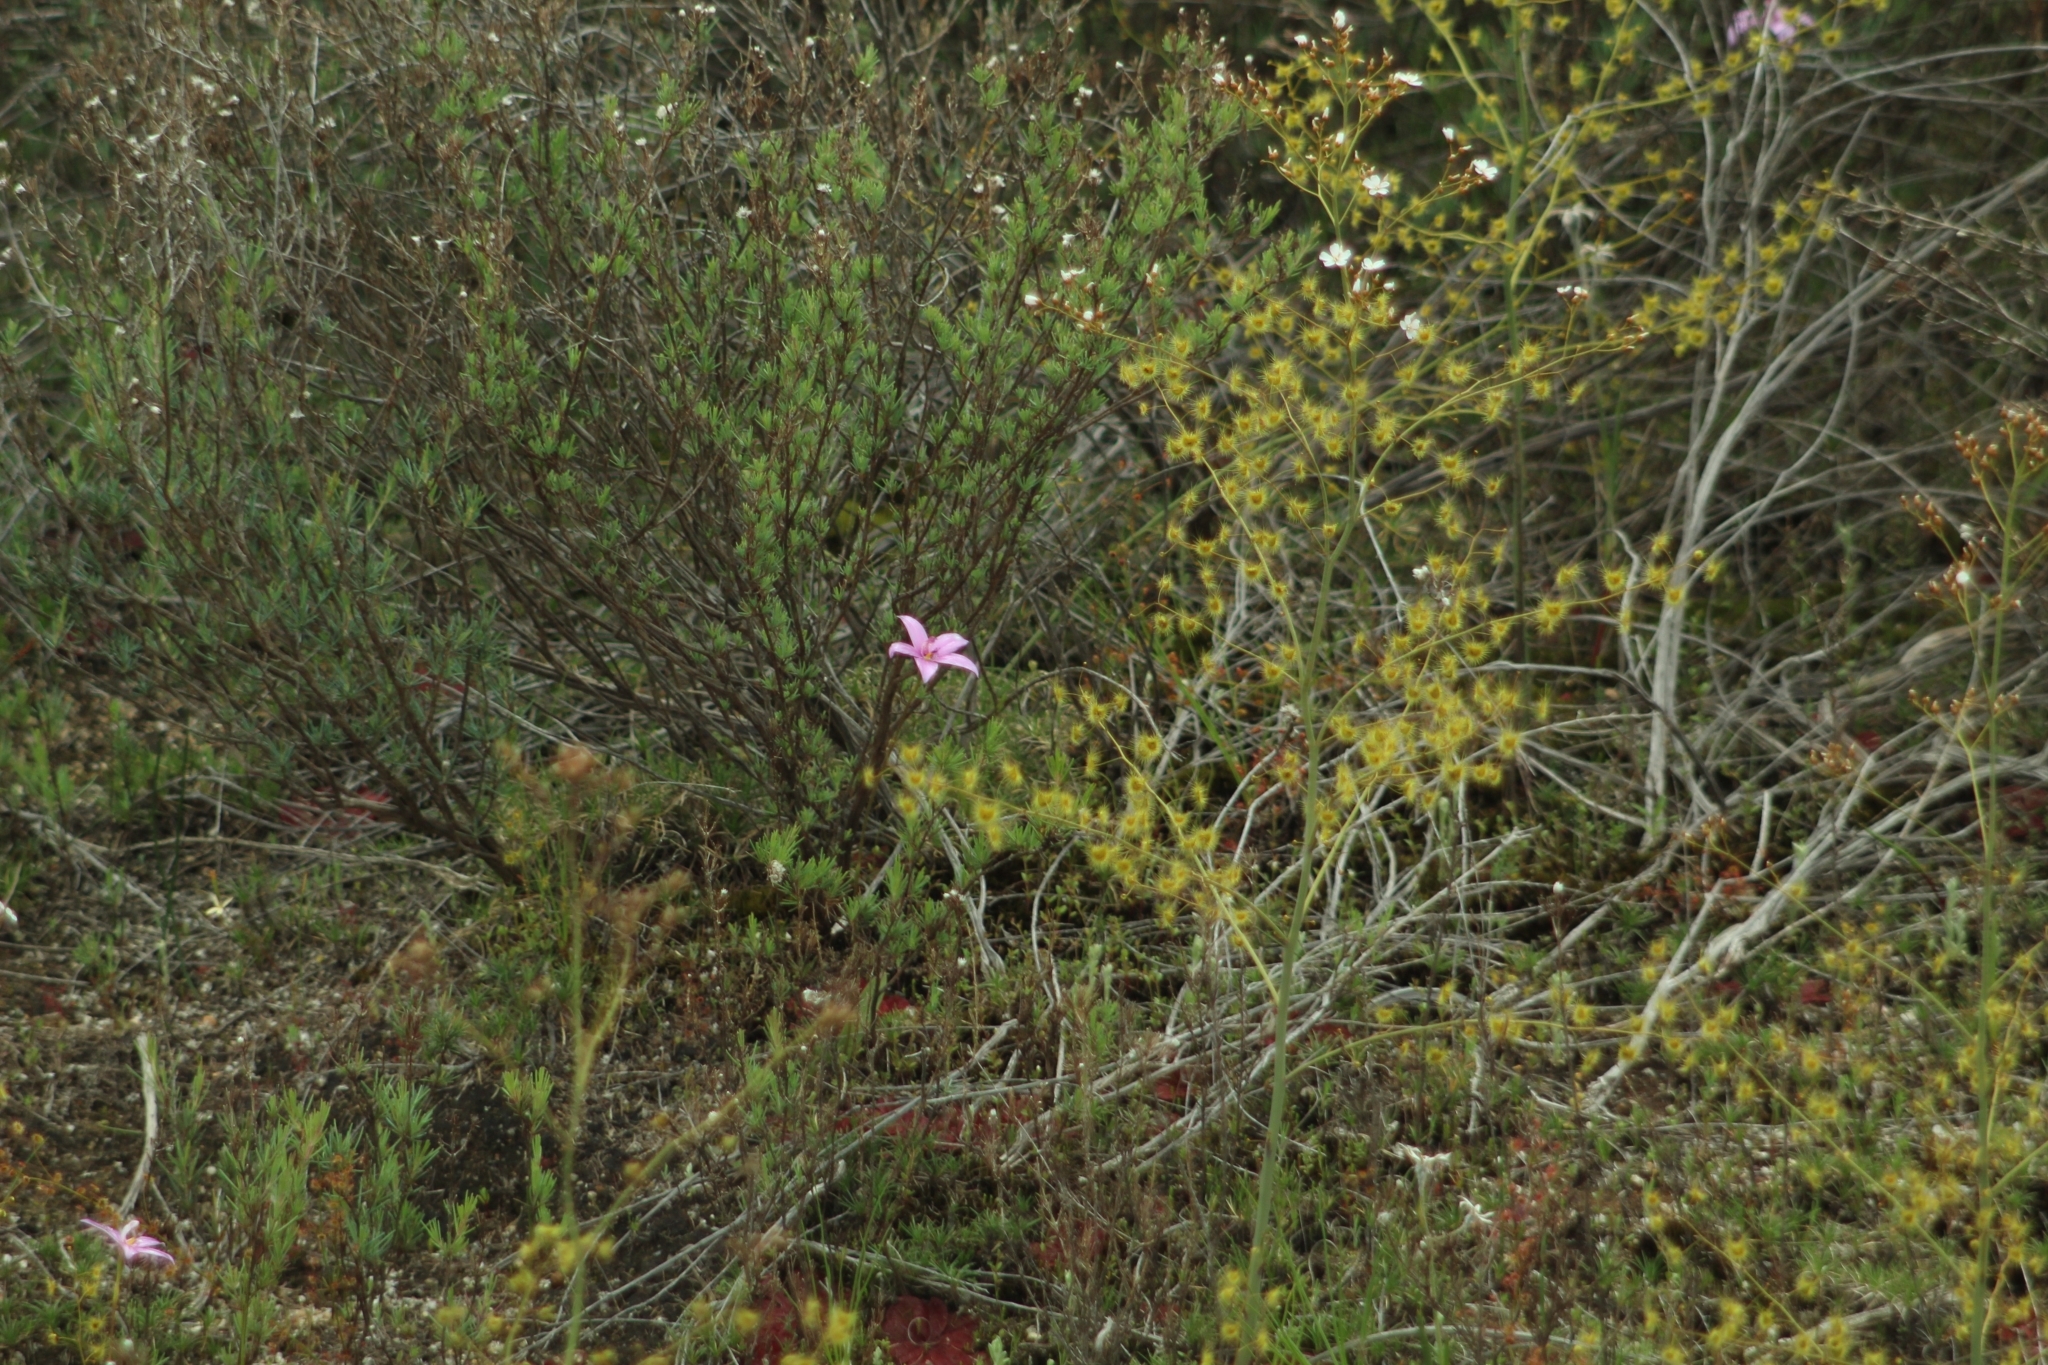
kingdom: Plantae
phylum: Tracheophyta
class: Magnoliopsida
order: Caryophyllales
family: Droseraceae
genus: Drosera
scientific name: Drosera gigantea
